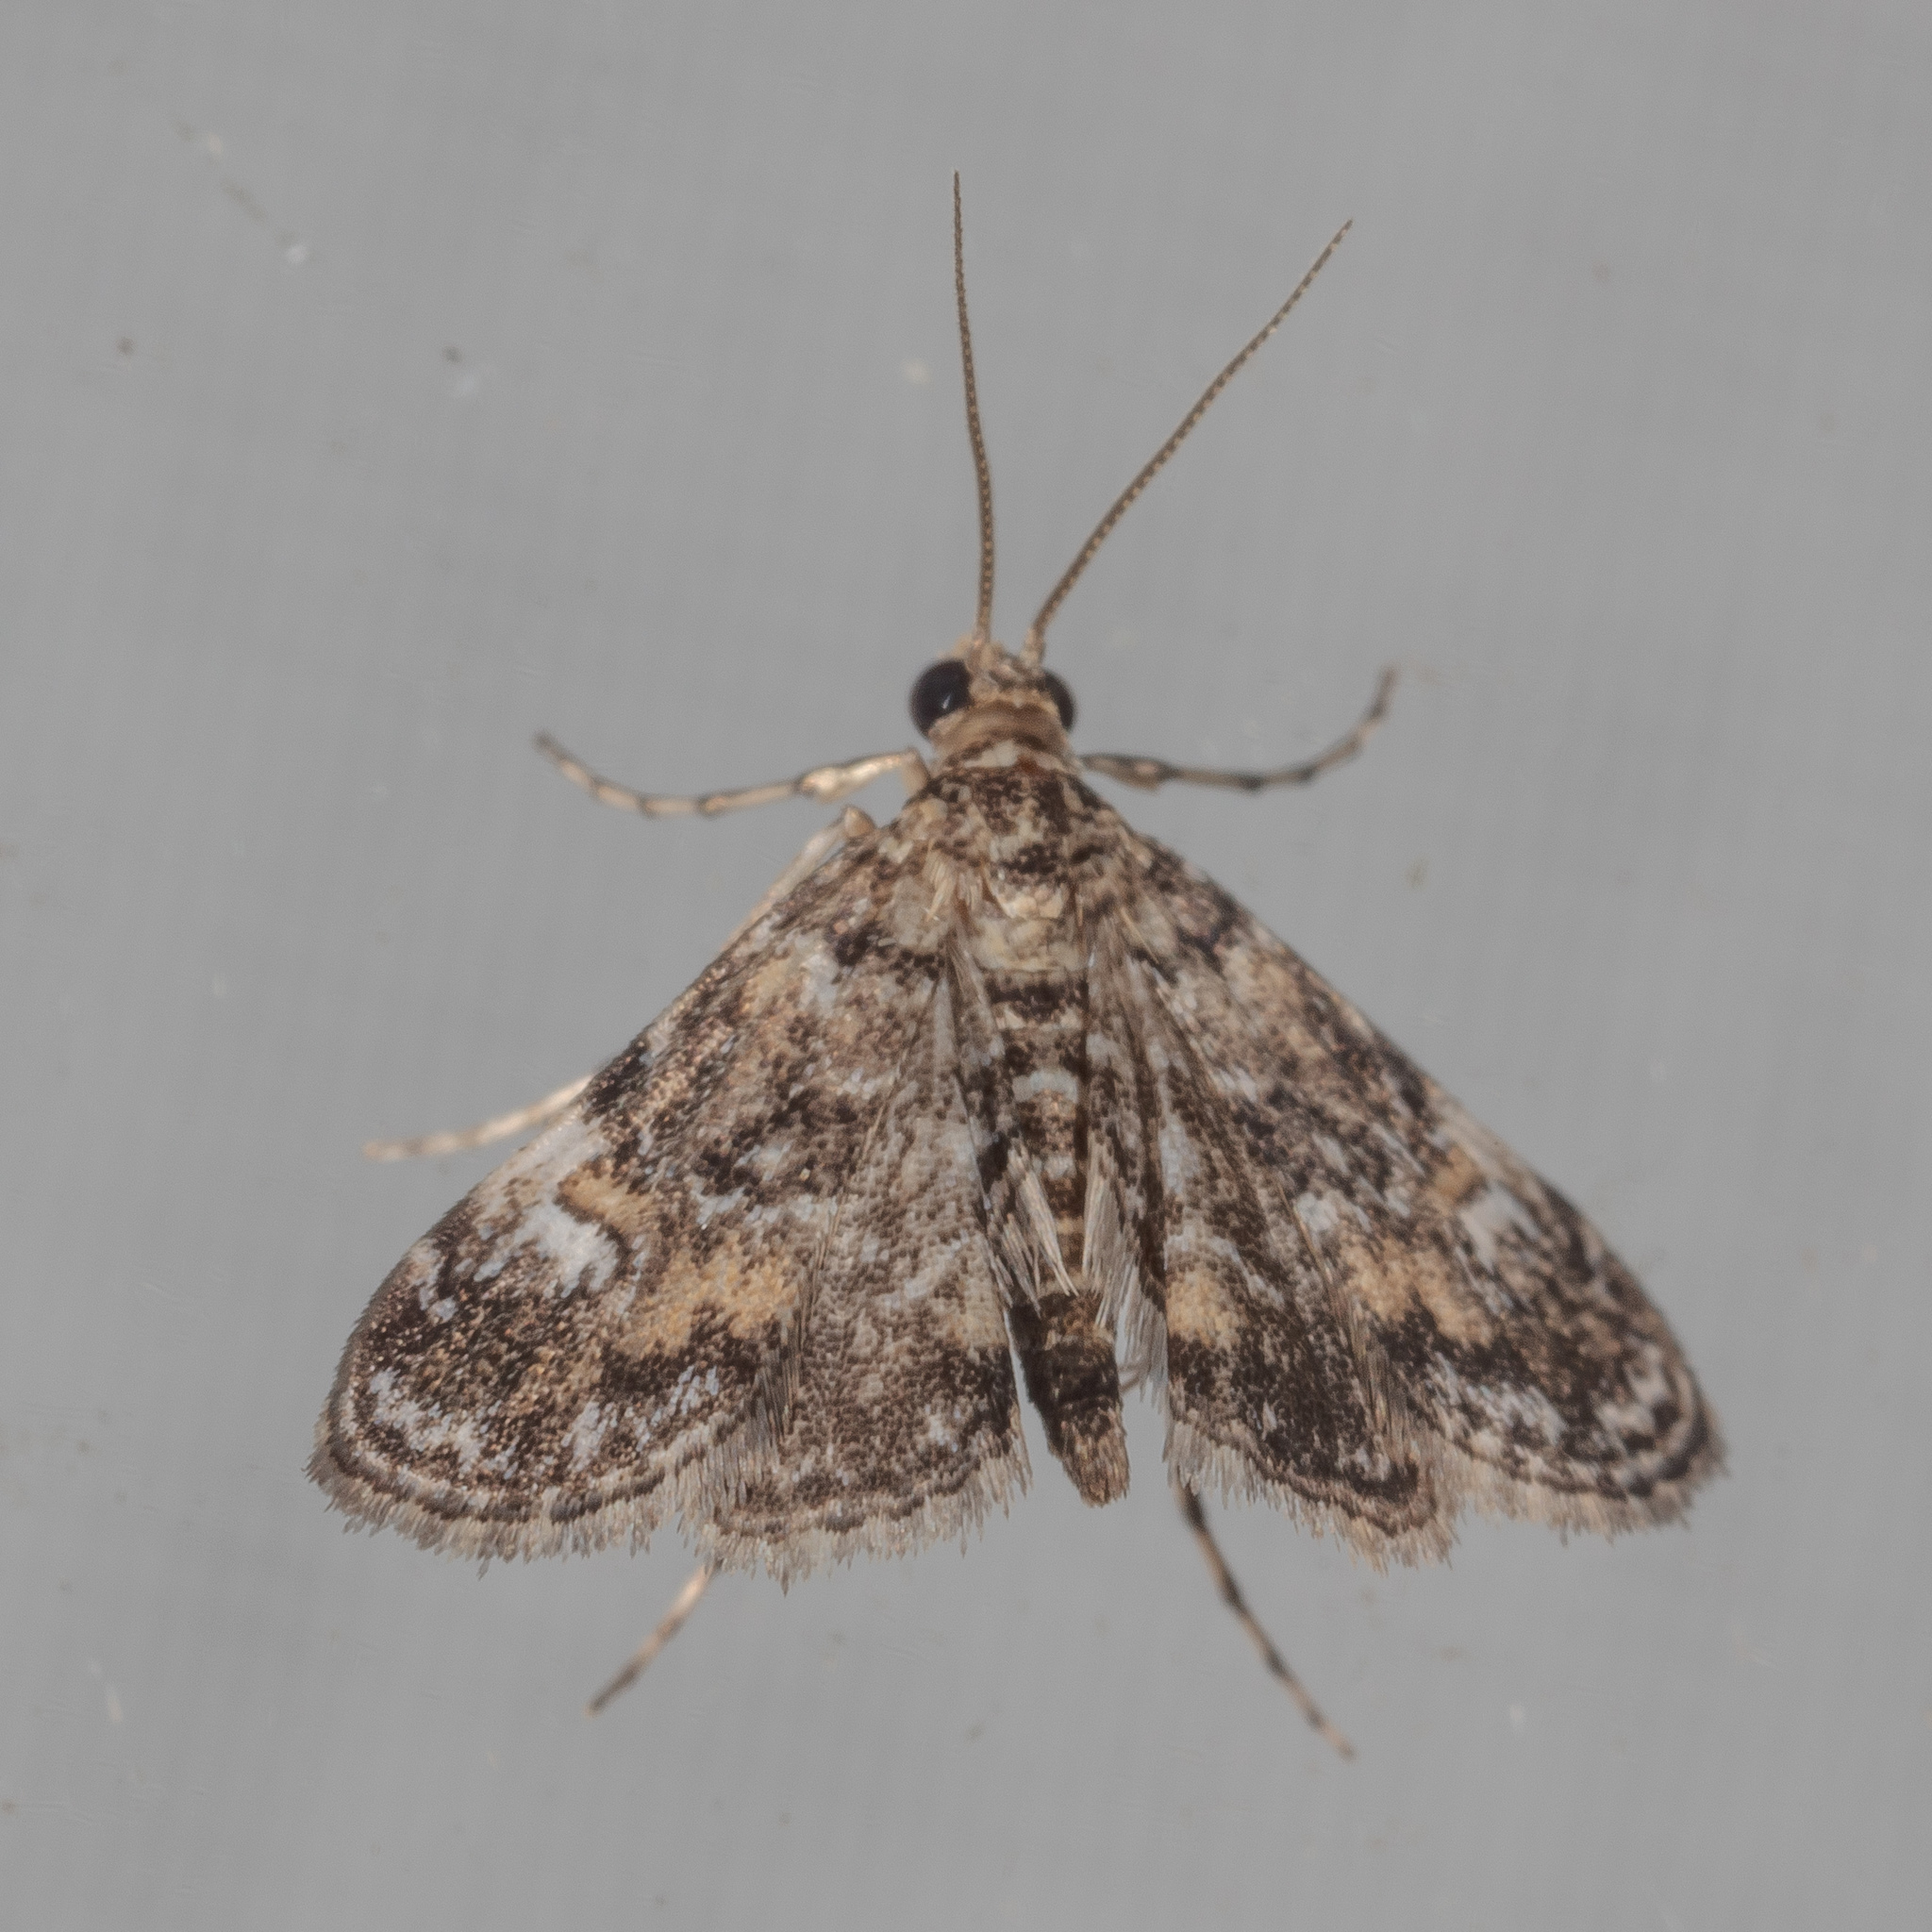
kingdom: Animalia
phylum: Arthropoda
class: Insecta
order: Lepidoptera
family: Crambidae
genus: Elophila
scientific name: Elophila obliteralis
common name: Waterlily leafcutter moth
